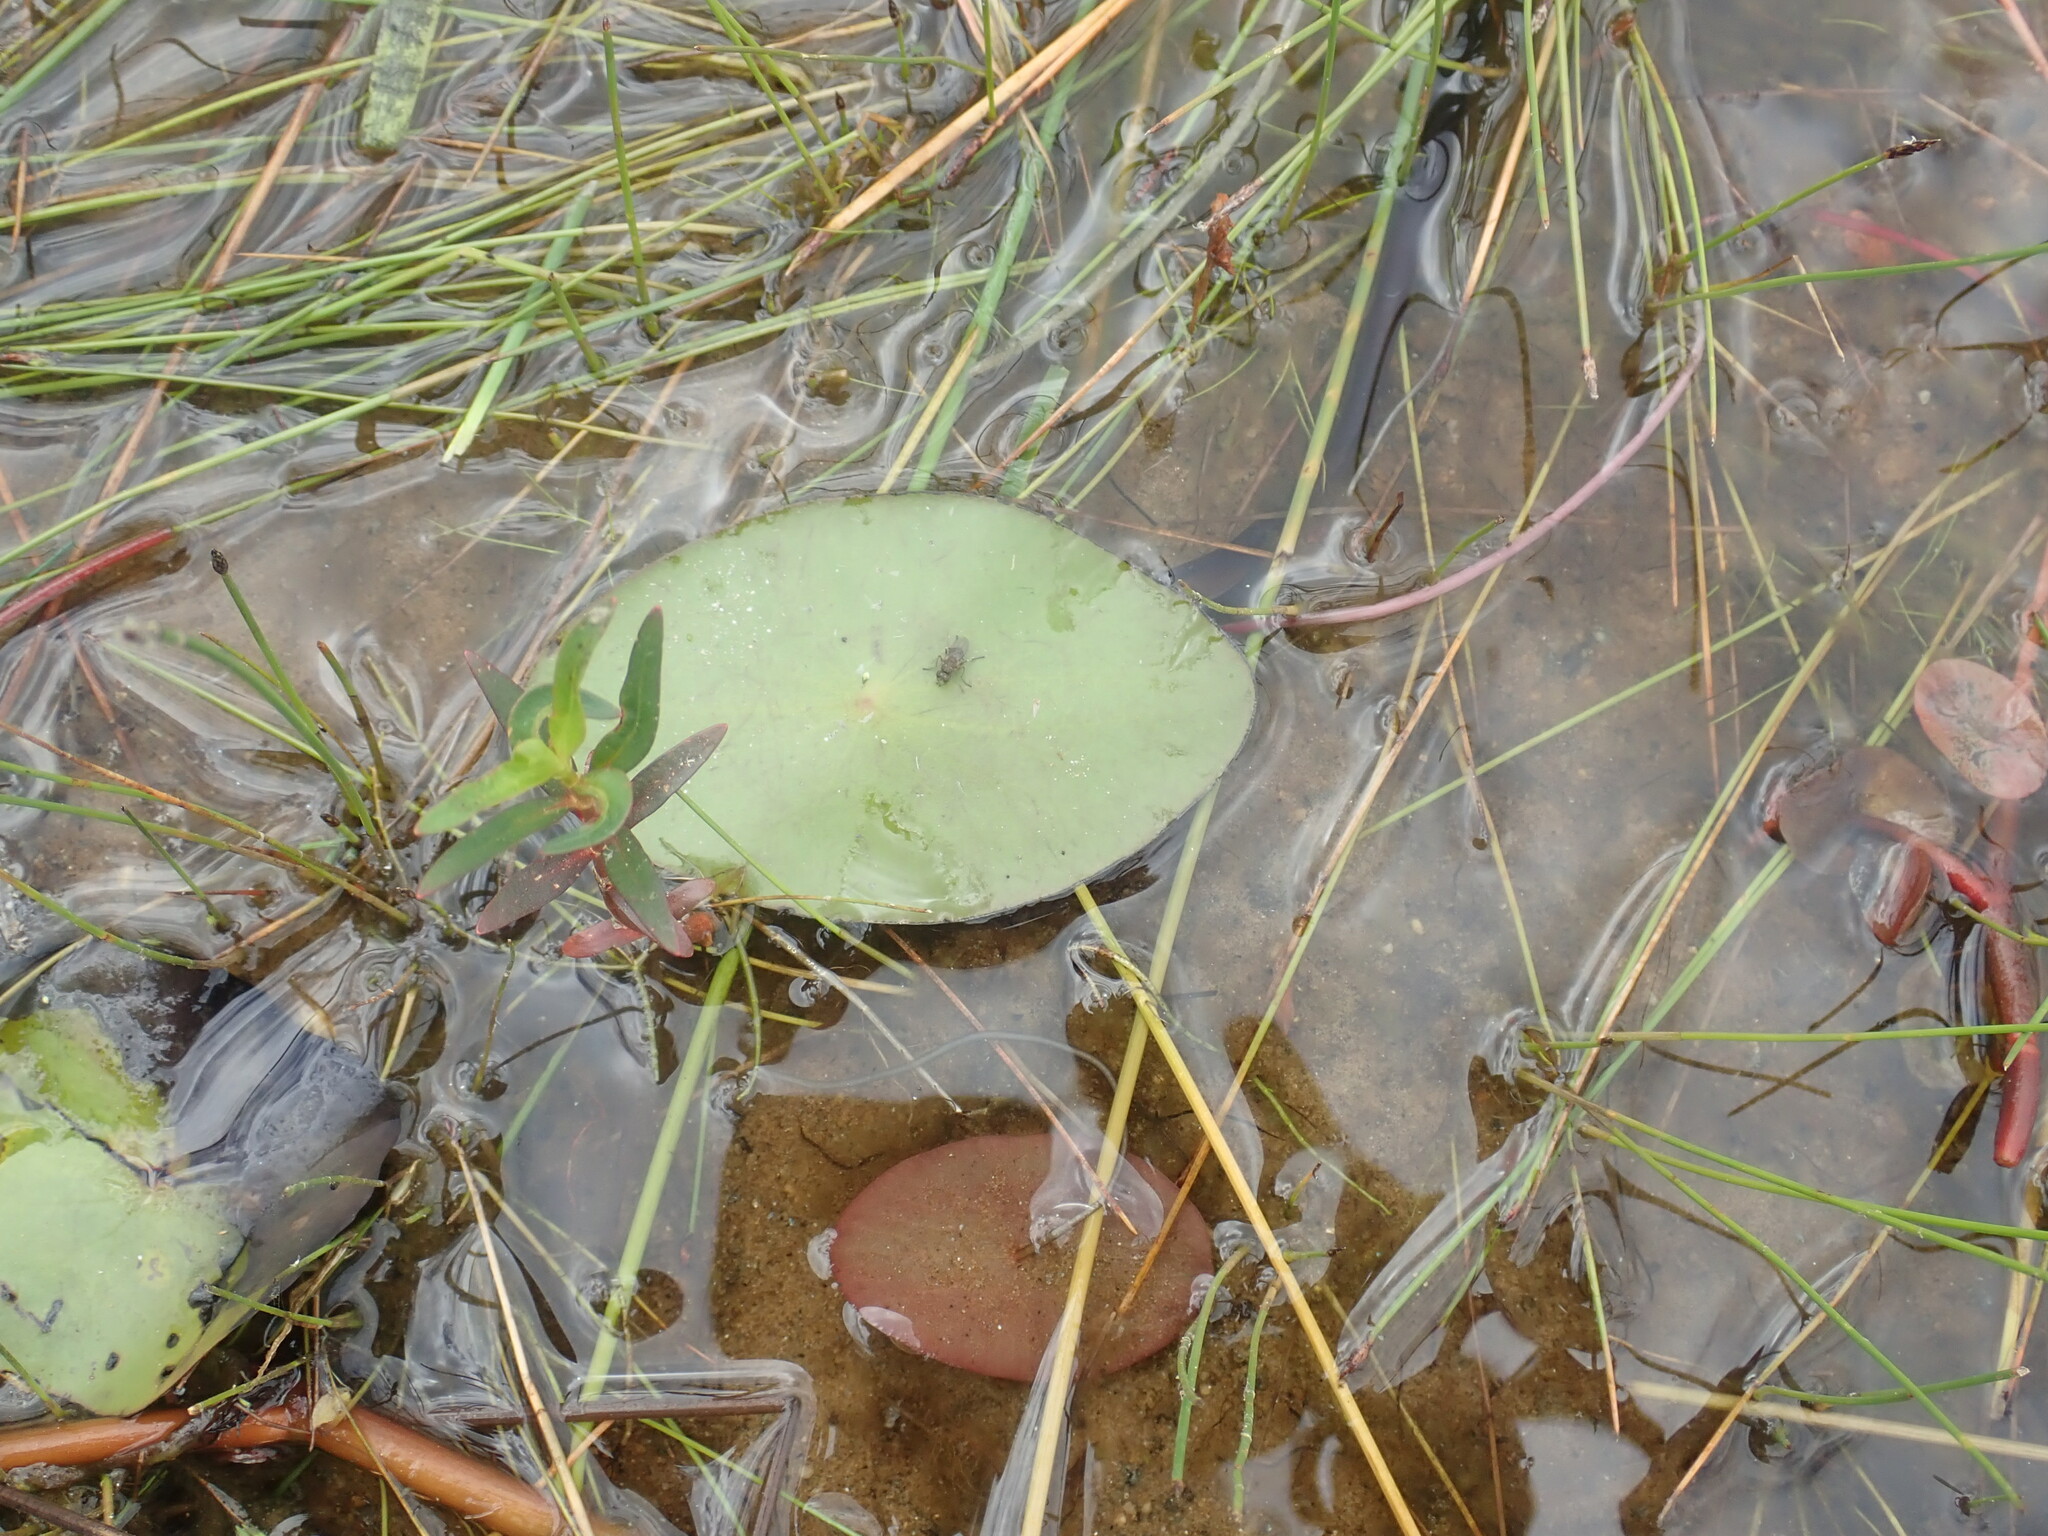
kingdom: Plantae
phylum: Tracheophyta
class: Magnoliopsida
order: Nymphaeales
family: Cabombaceae
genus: Brasenia
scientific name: Brasenia schreberi
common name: Water-shield
